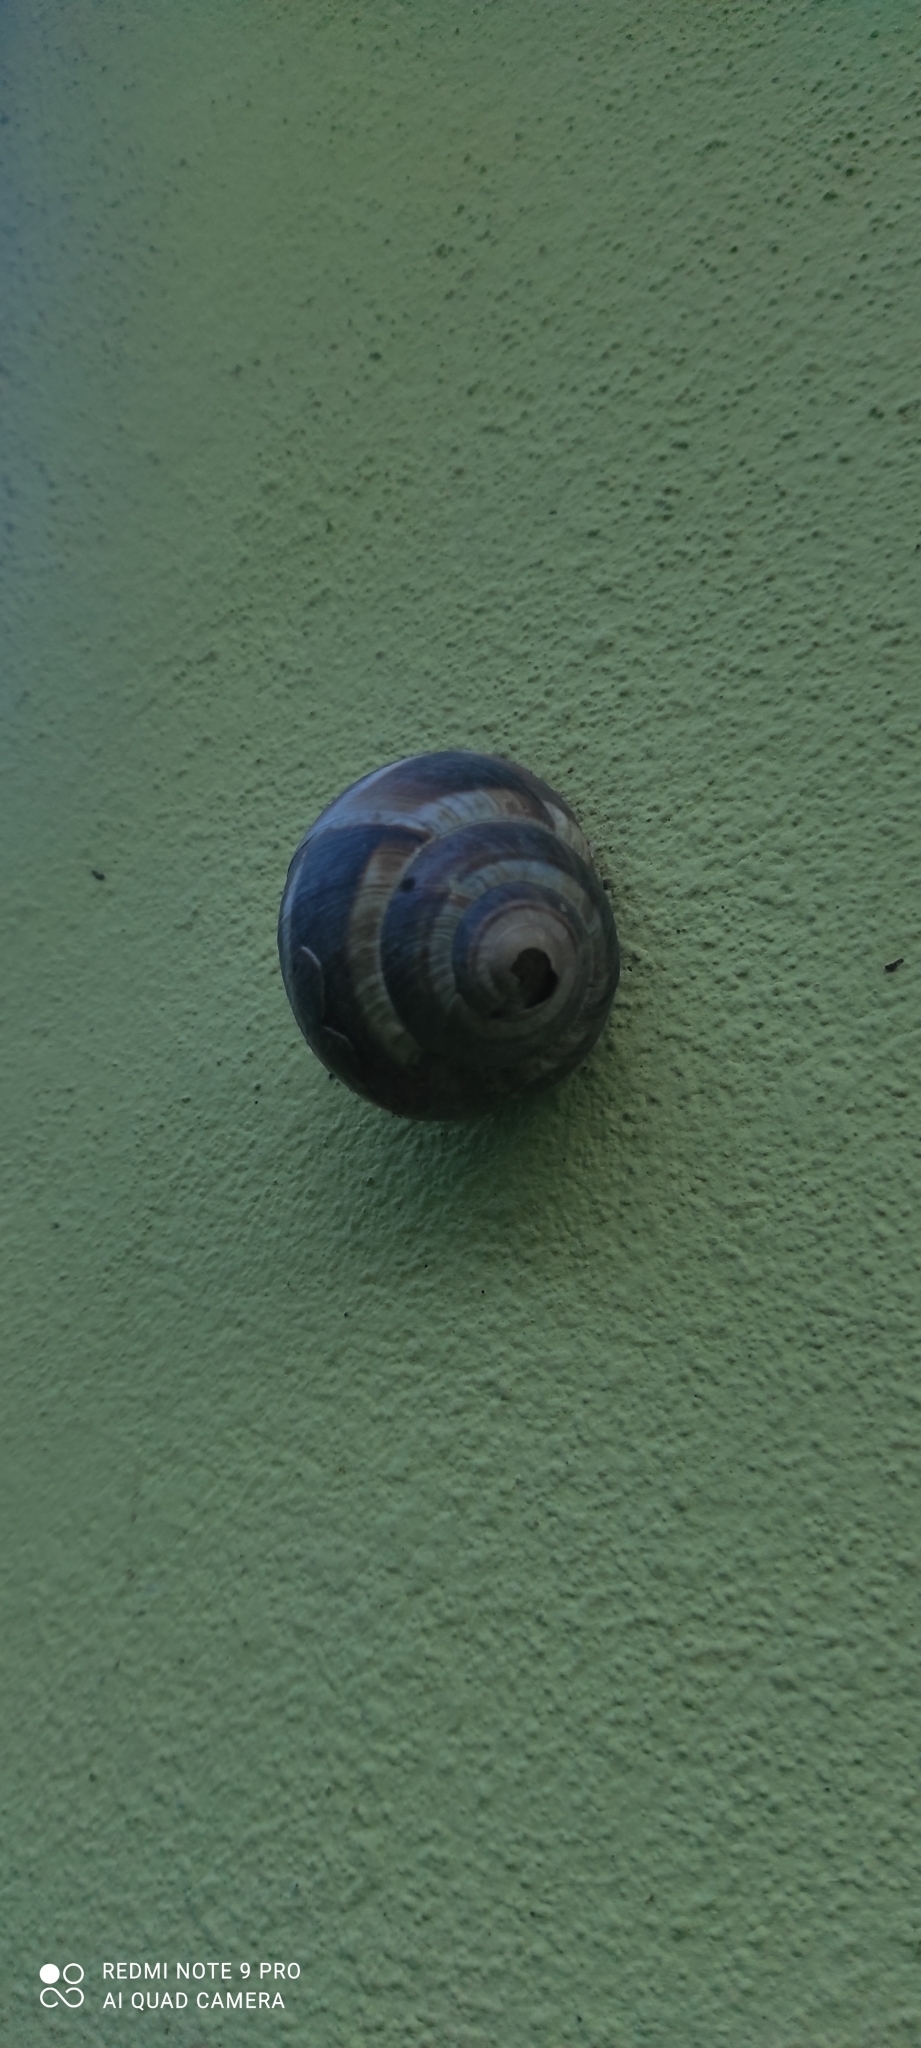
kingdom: Animalia
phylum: Mollusca
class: Gastropoda
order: Stylommatophora
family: Helicidae
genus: Helix
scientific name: Helix straminea
